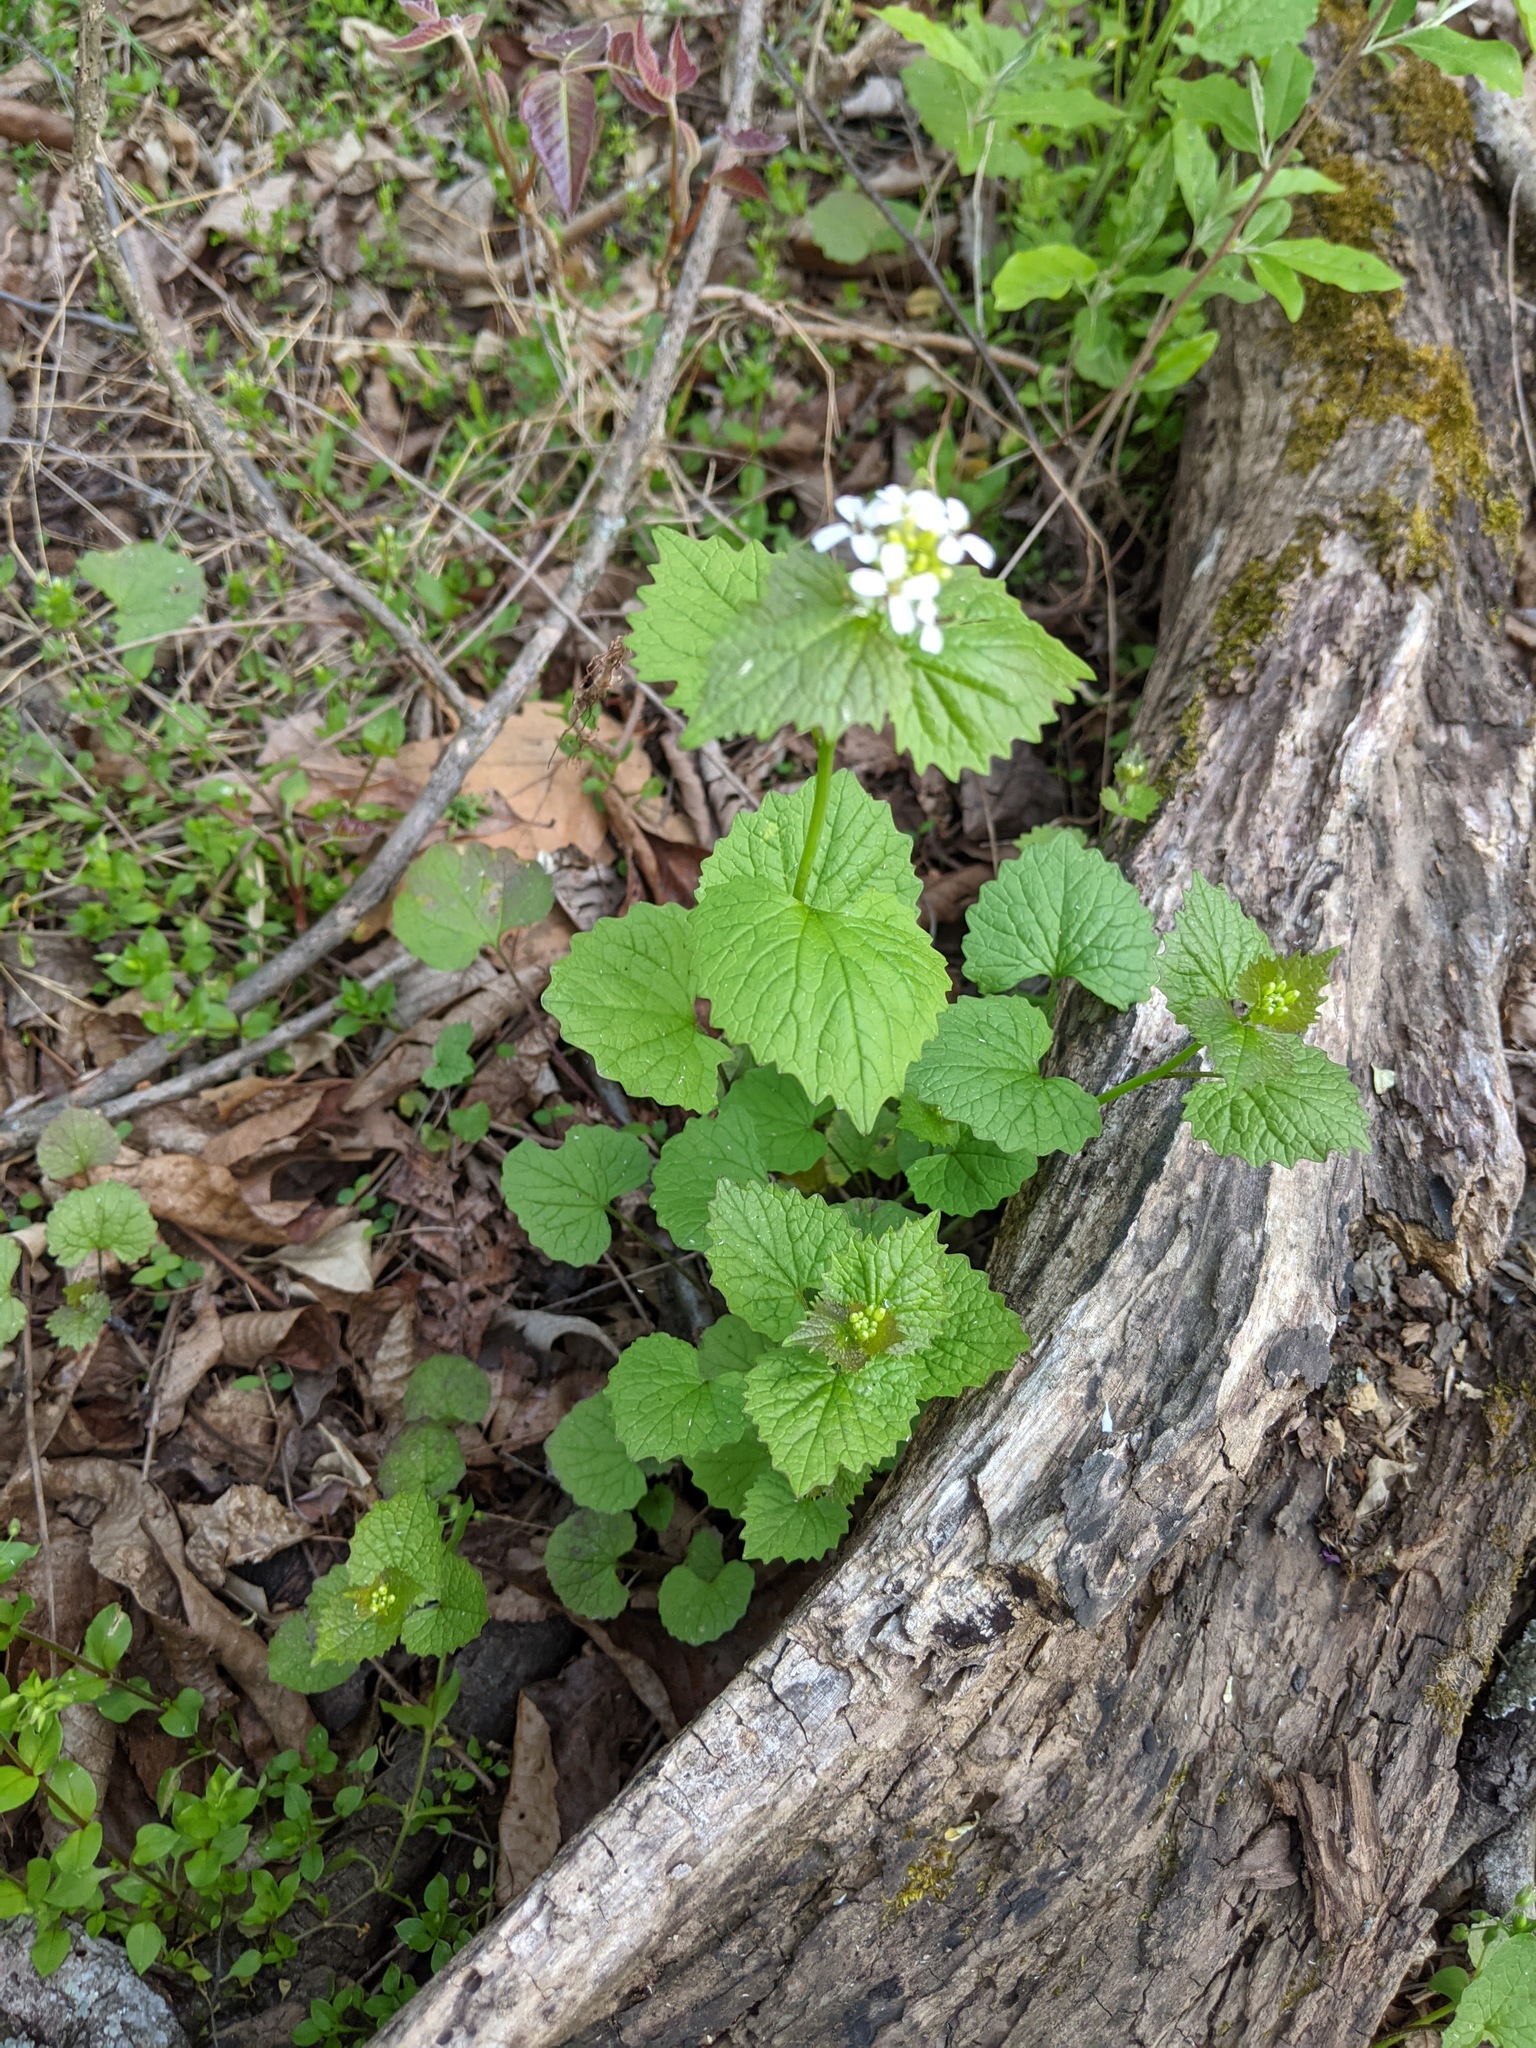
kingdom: Plantae
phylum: Tracheophyta
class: Magnoliopsida
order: Brassicales
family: Brassicaceae
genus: Alliaria
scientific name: Alliaria petiolata
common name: Garlic mustard
